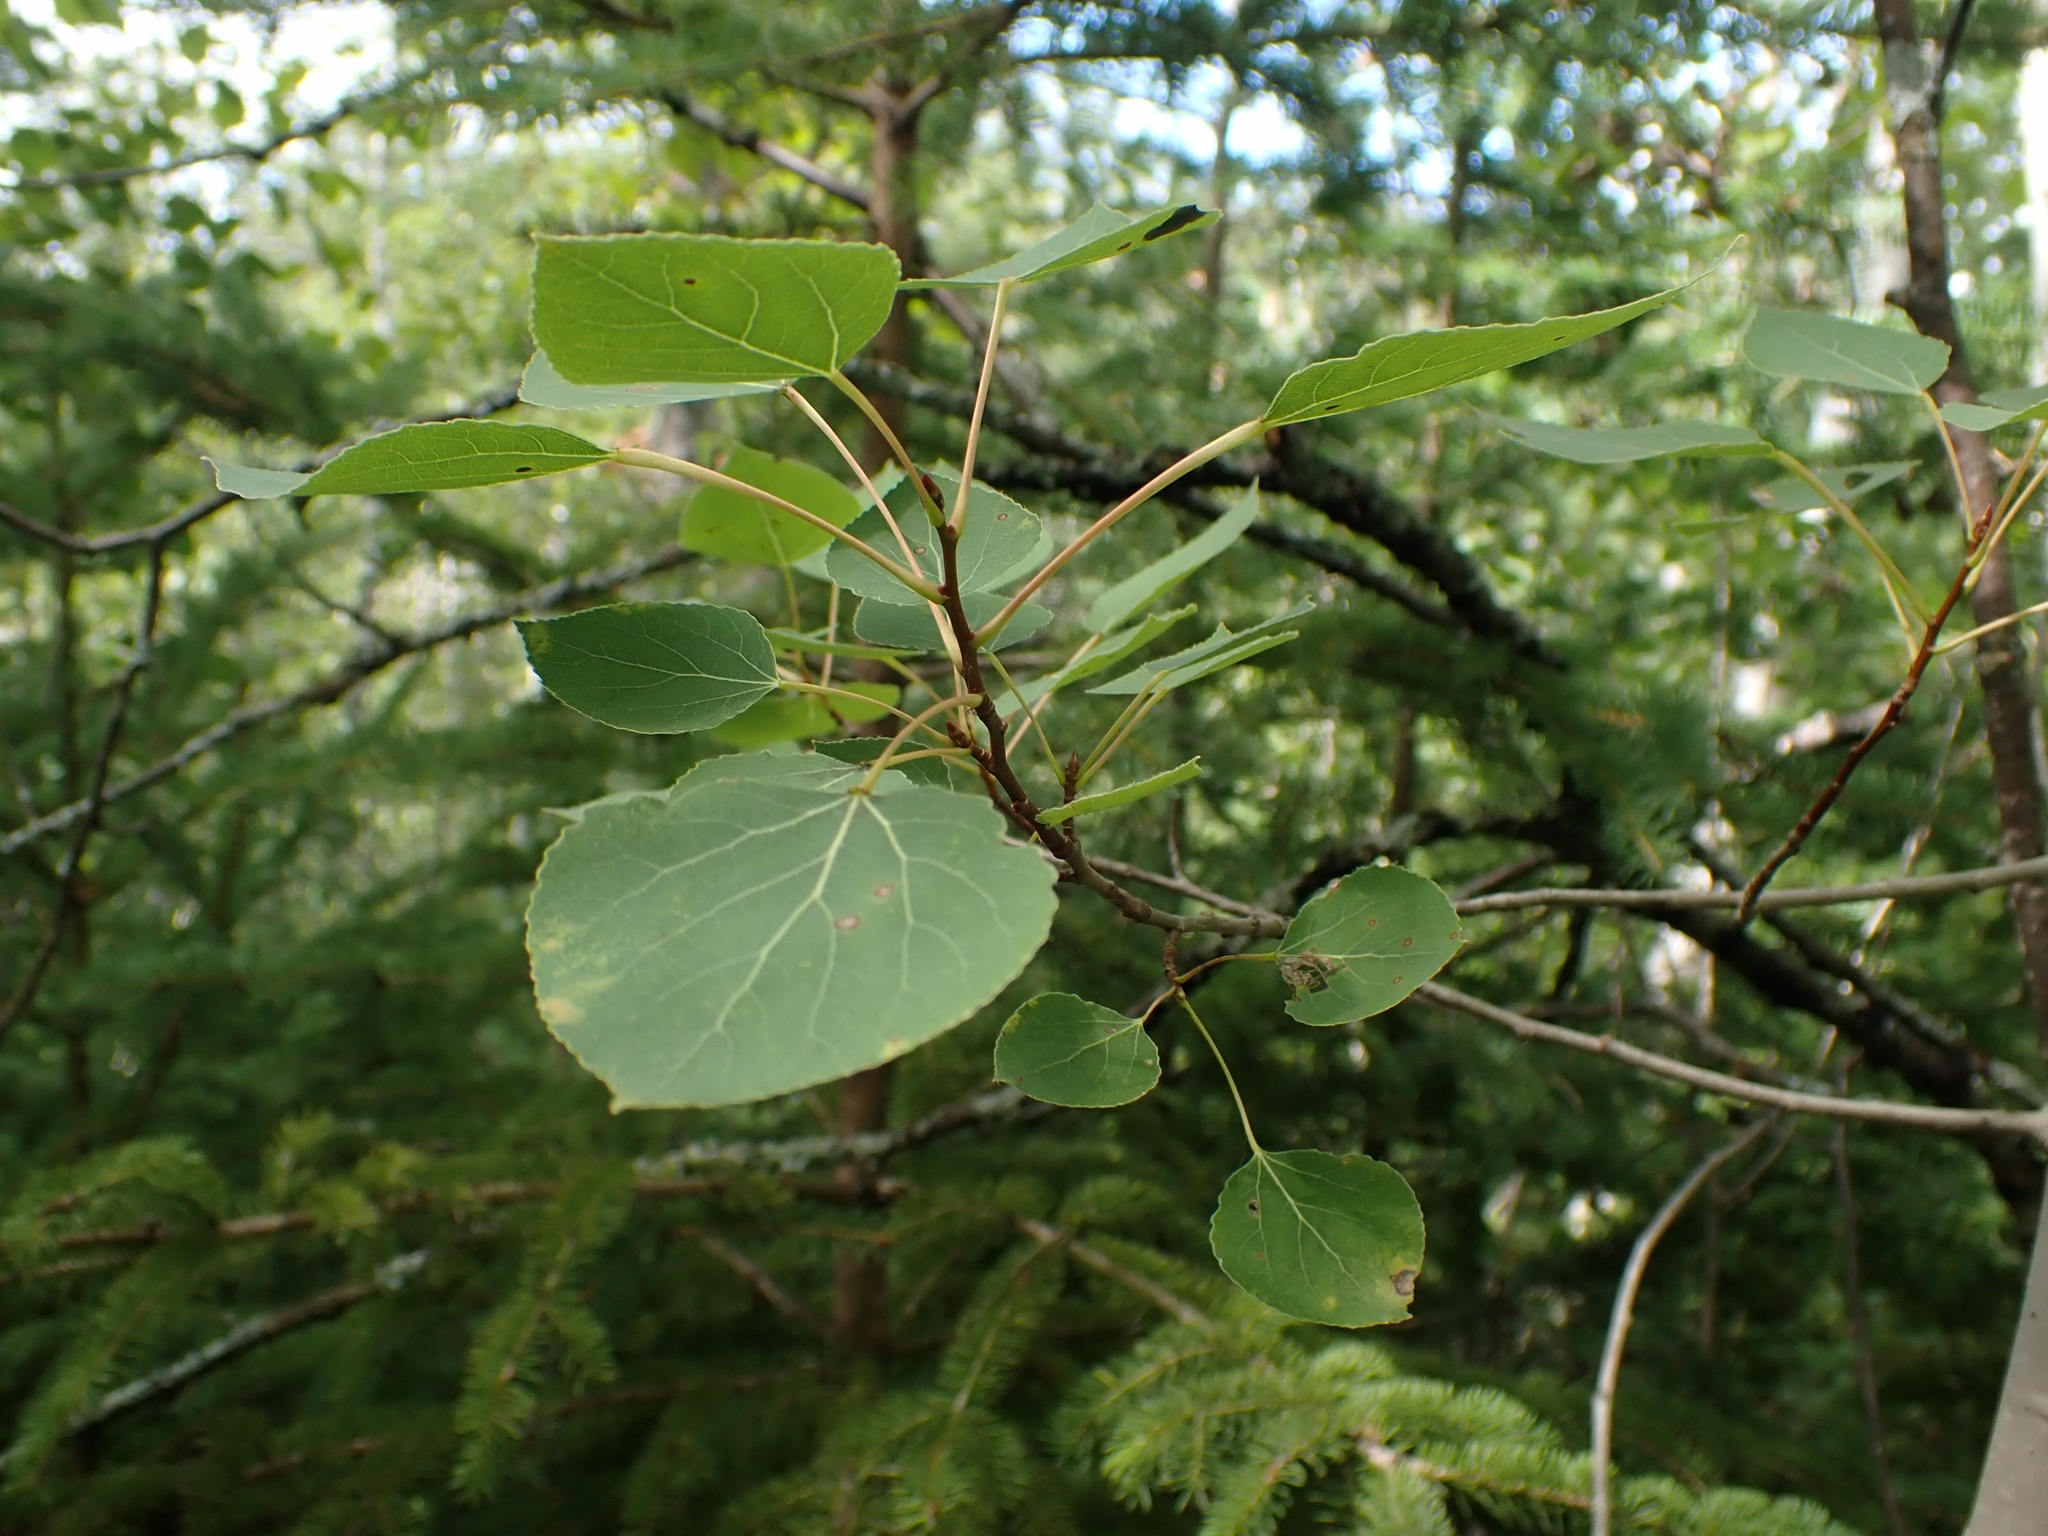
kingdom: Plantae
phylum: Tracheophyta
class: Magnoliopsida
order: Malpighiales
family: Salicaceae
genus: Populus
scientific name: Populus tremuloides
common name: Quaking aspen
